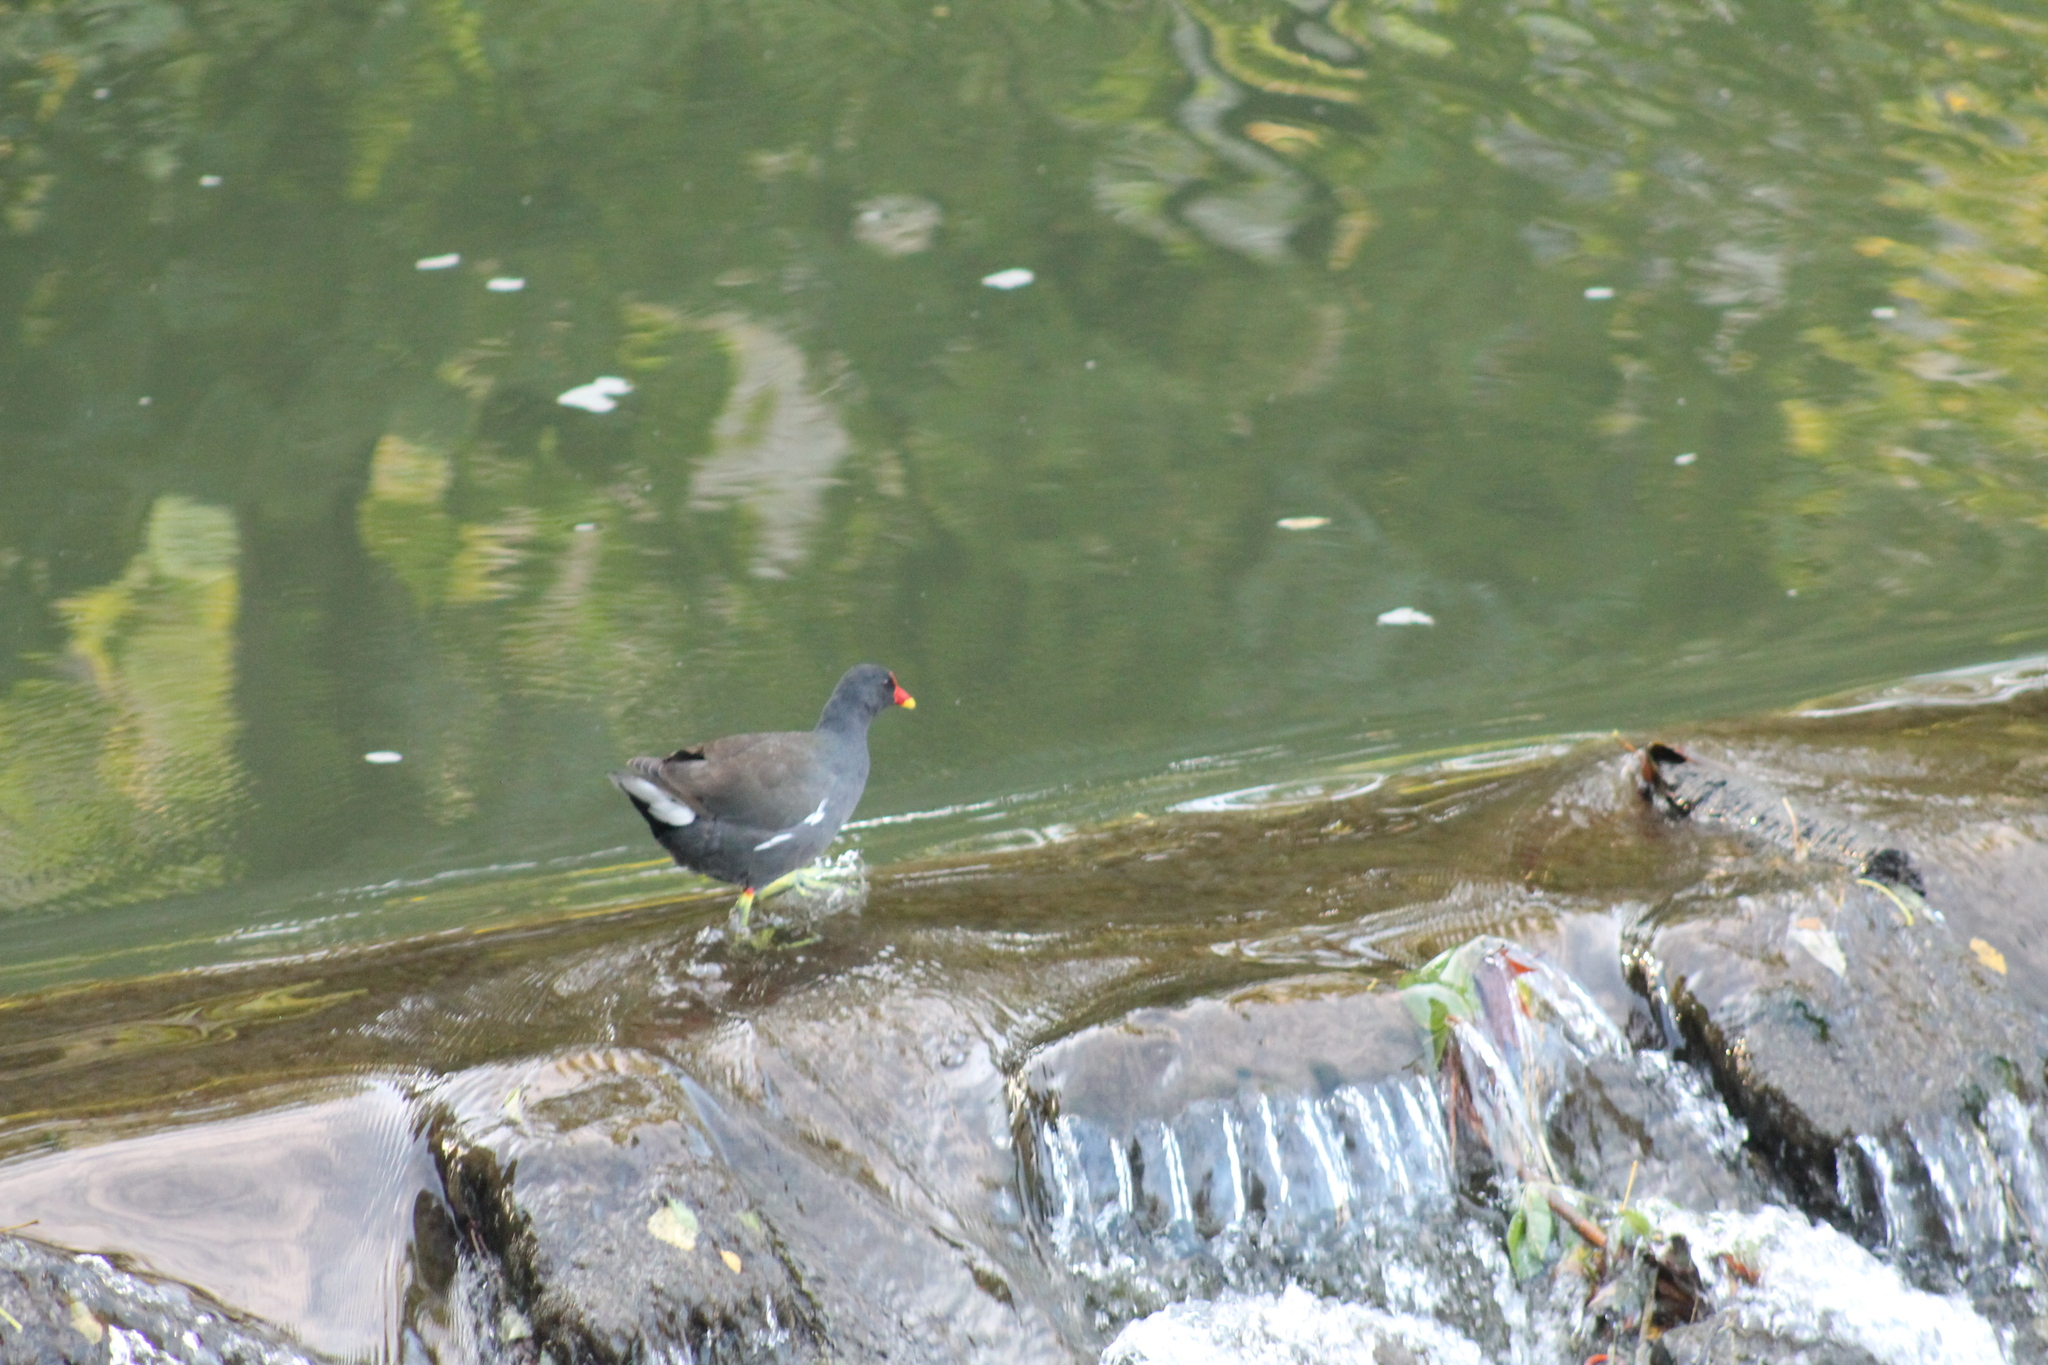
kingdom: Animalia
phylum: Chordata
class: Aves
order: Gruiformes
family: Rallidae
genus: Gallinula
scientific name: Gallinula chloropus
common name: Common moorhen
